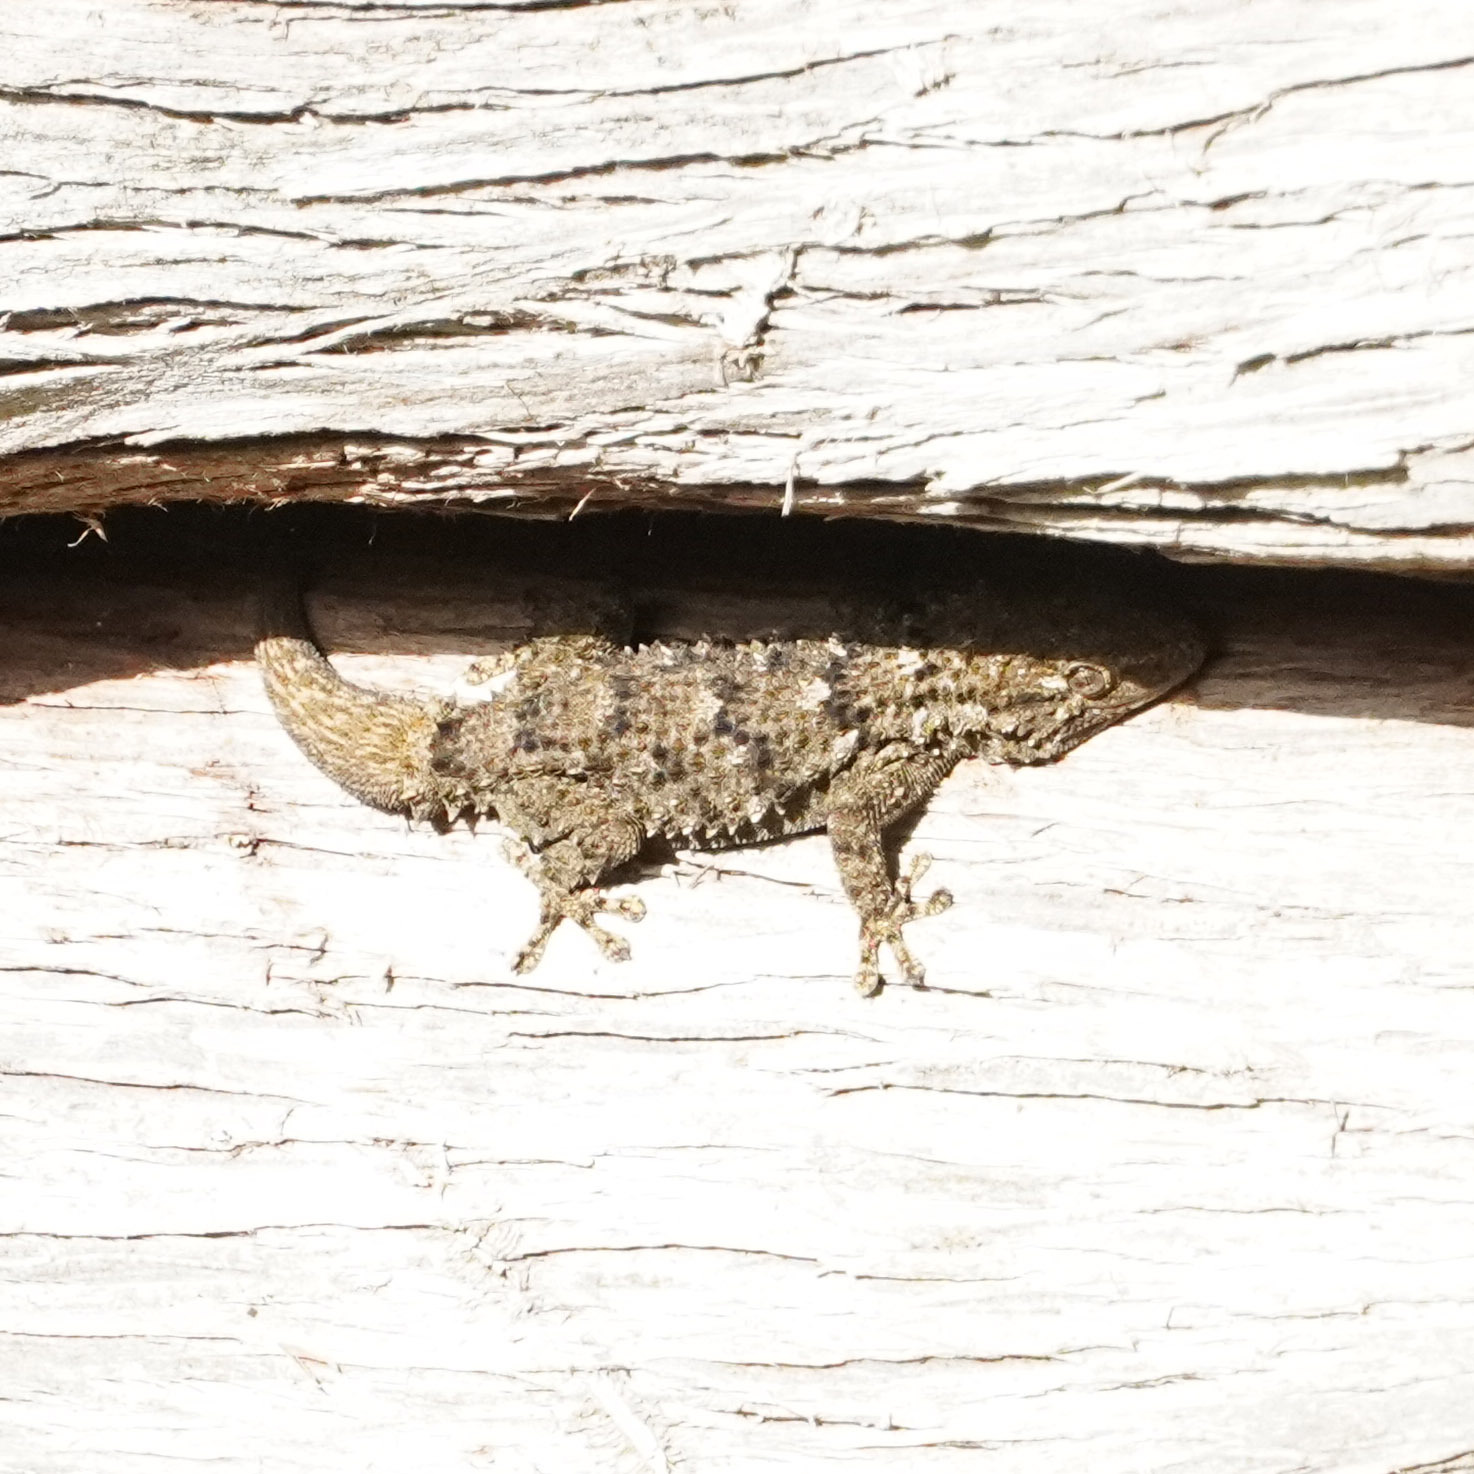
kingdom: Animalia
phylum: Chordata
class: Squamata
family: Phyllodactylidae
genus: Tarentola
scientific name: Tarentola mauritanica
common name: Moorish gecko
